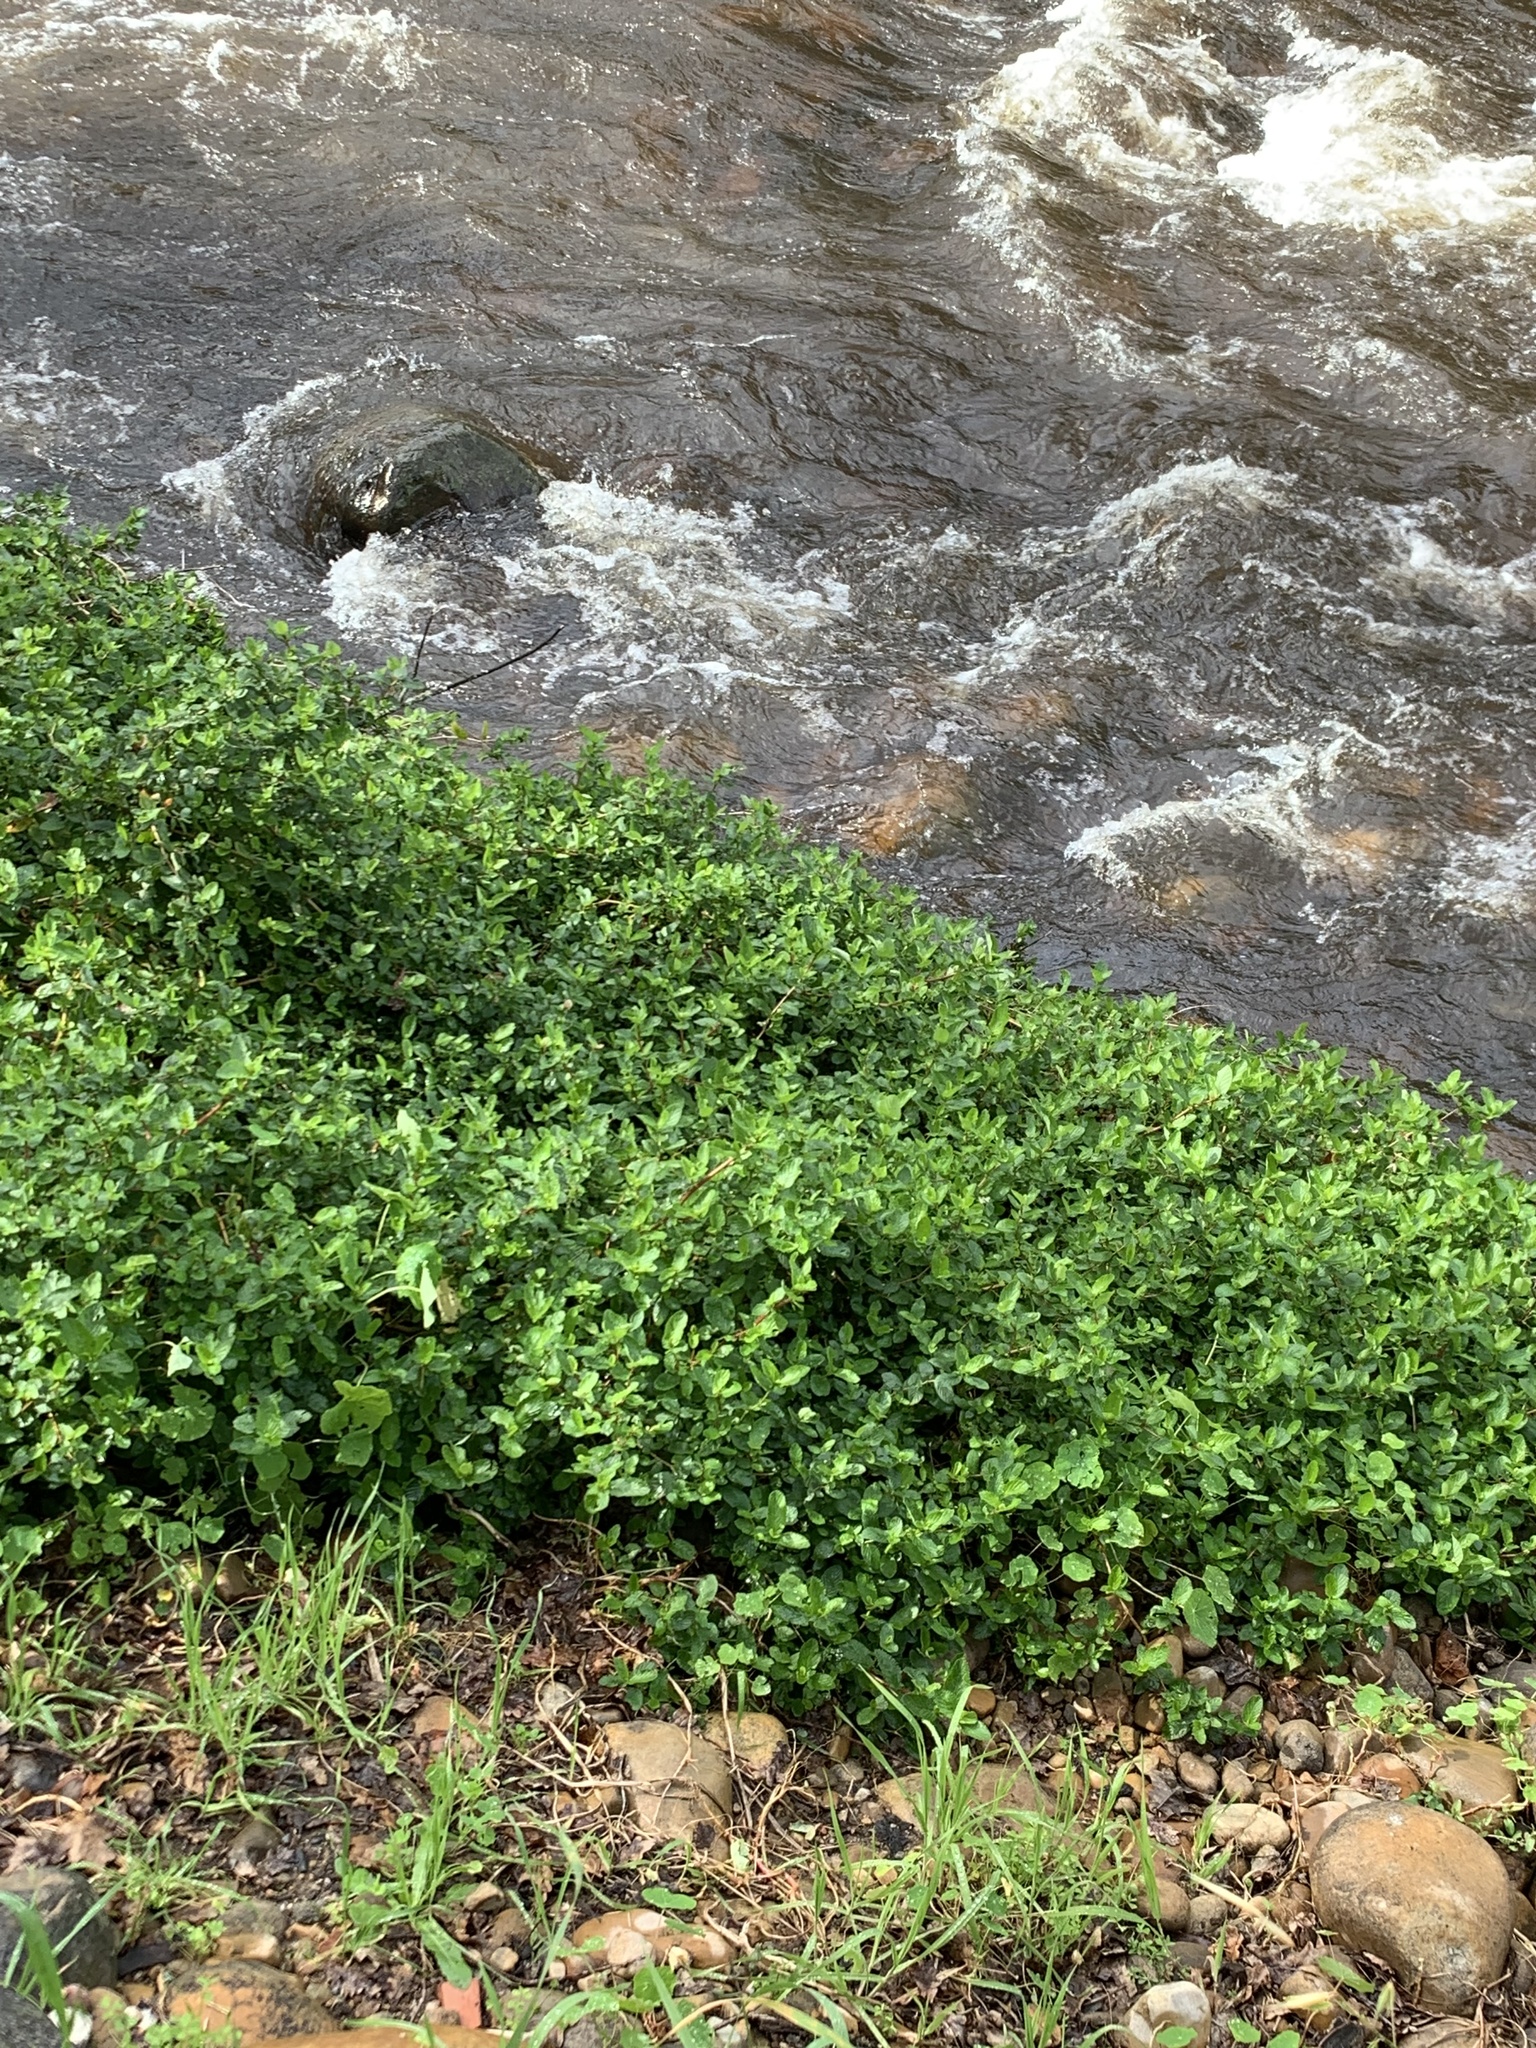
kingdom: Plantae
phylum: Tracheophyta
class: Magnoliopsida
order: Rosales
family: Rosaceae
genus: Cliffortia
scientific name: Cliffortia odorata
